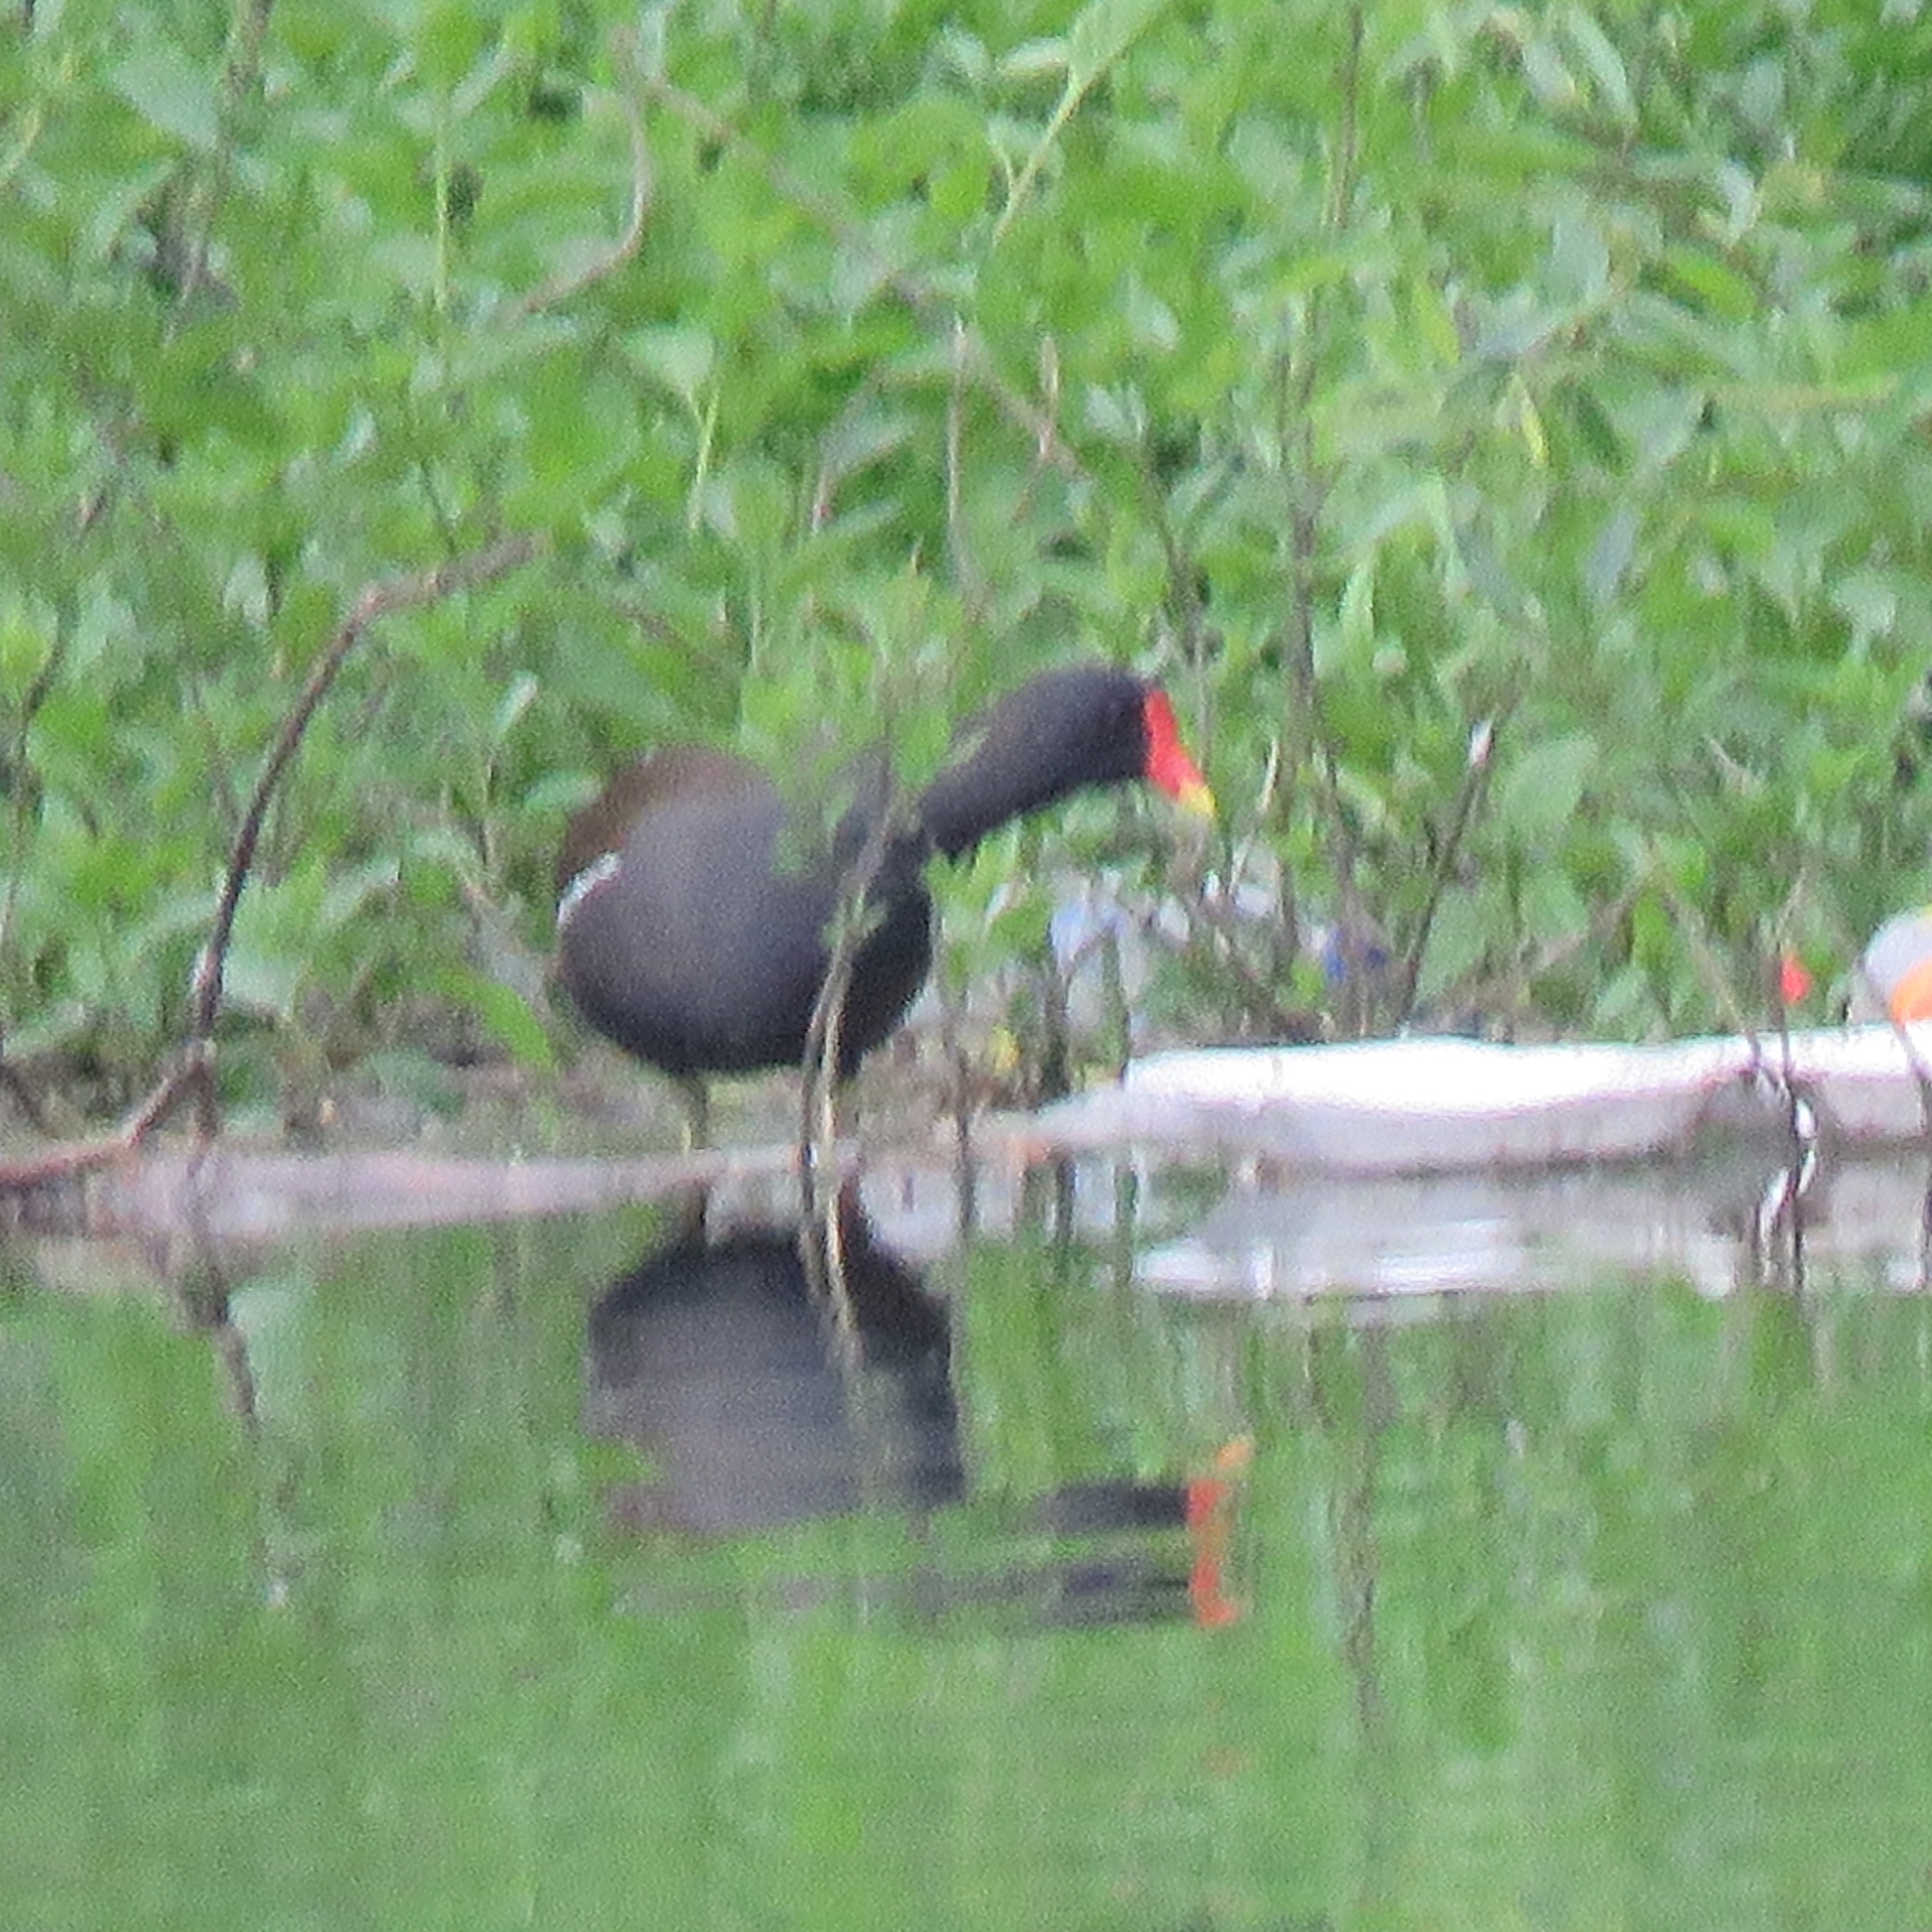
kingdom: Animalia
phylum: Chordata
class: Aves
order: Gruiformes
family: Rallidae
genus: Gallinula
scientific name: Gallinula chloropus
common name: Common moorhen
